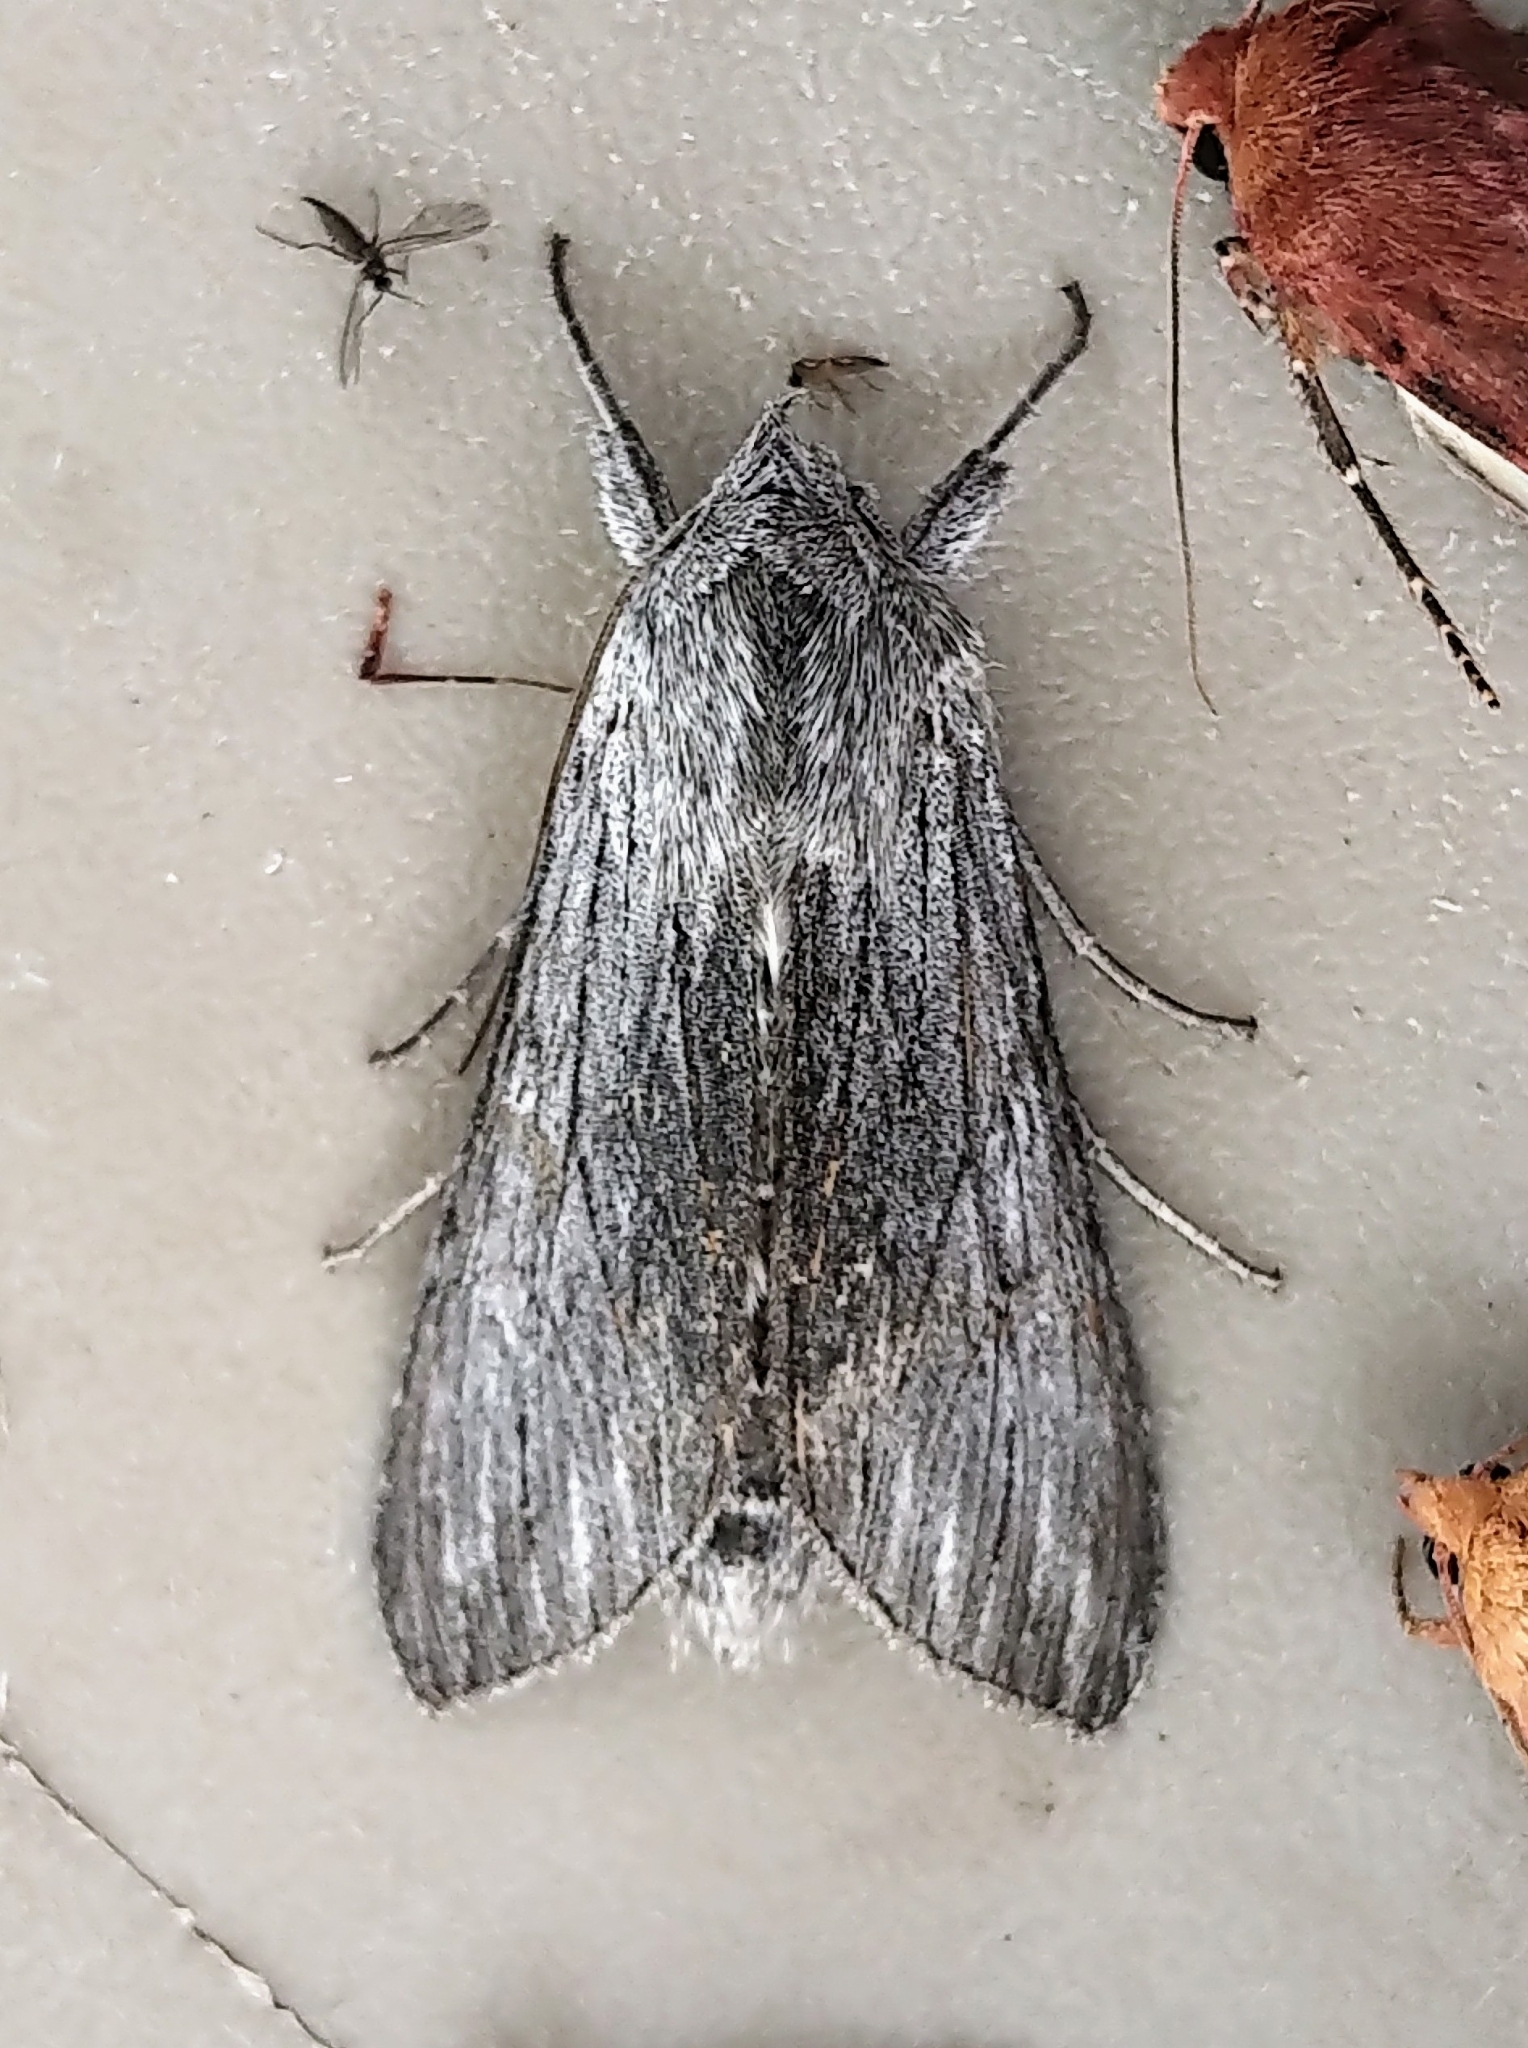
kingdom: Animalia
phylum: Arthropoda
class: Insecta
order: Lepidoptera
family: Noctuidae
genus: Cucullia
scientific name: Cucullia intermedia
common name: Goldenrod cutworm
